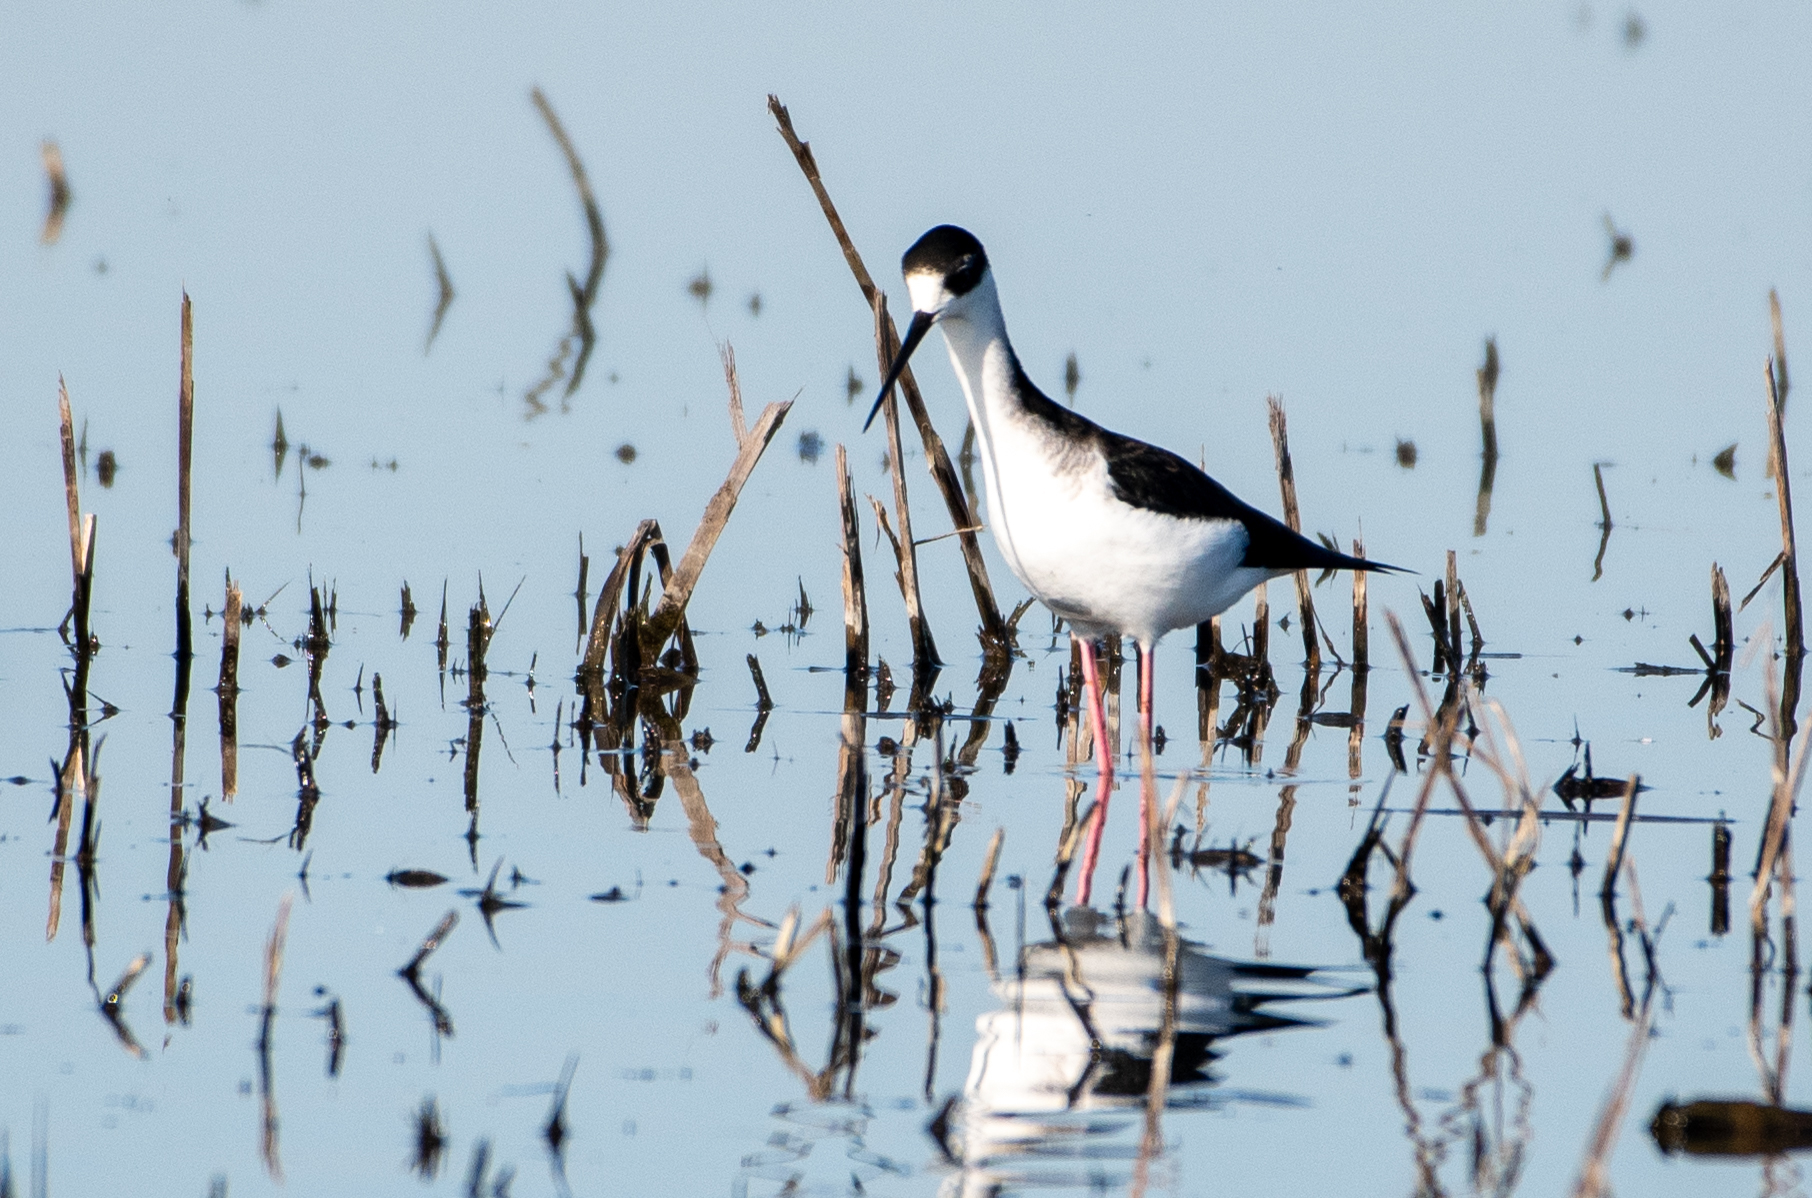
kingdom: Animalia
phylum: Chordata
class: Aves
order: Charadriiformes
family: Recurvirostridae
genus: Himantopus
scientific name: Himantopus mexicanus
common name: Black-necked stilt
